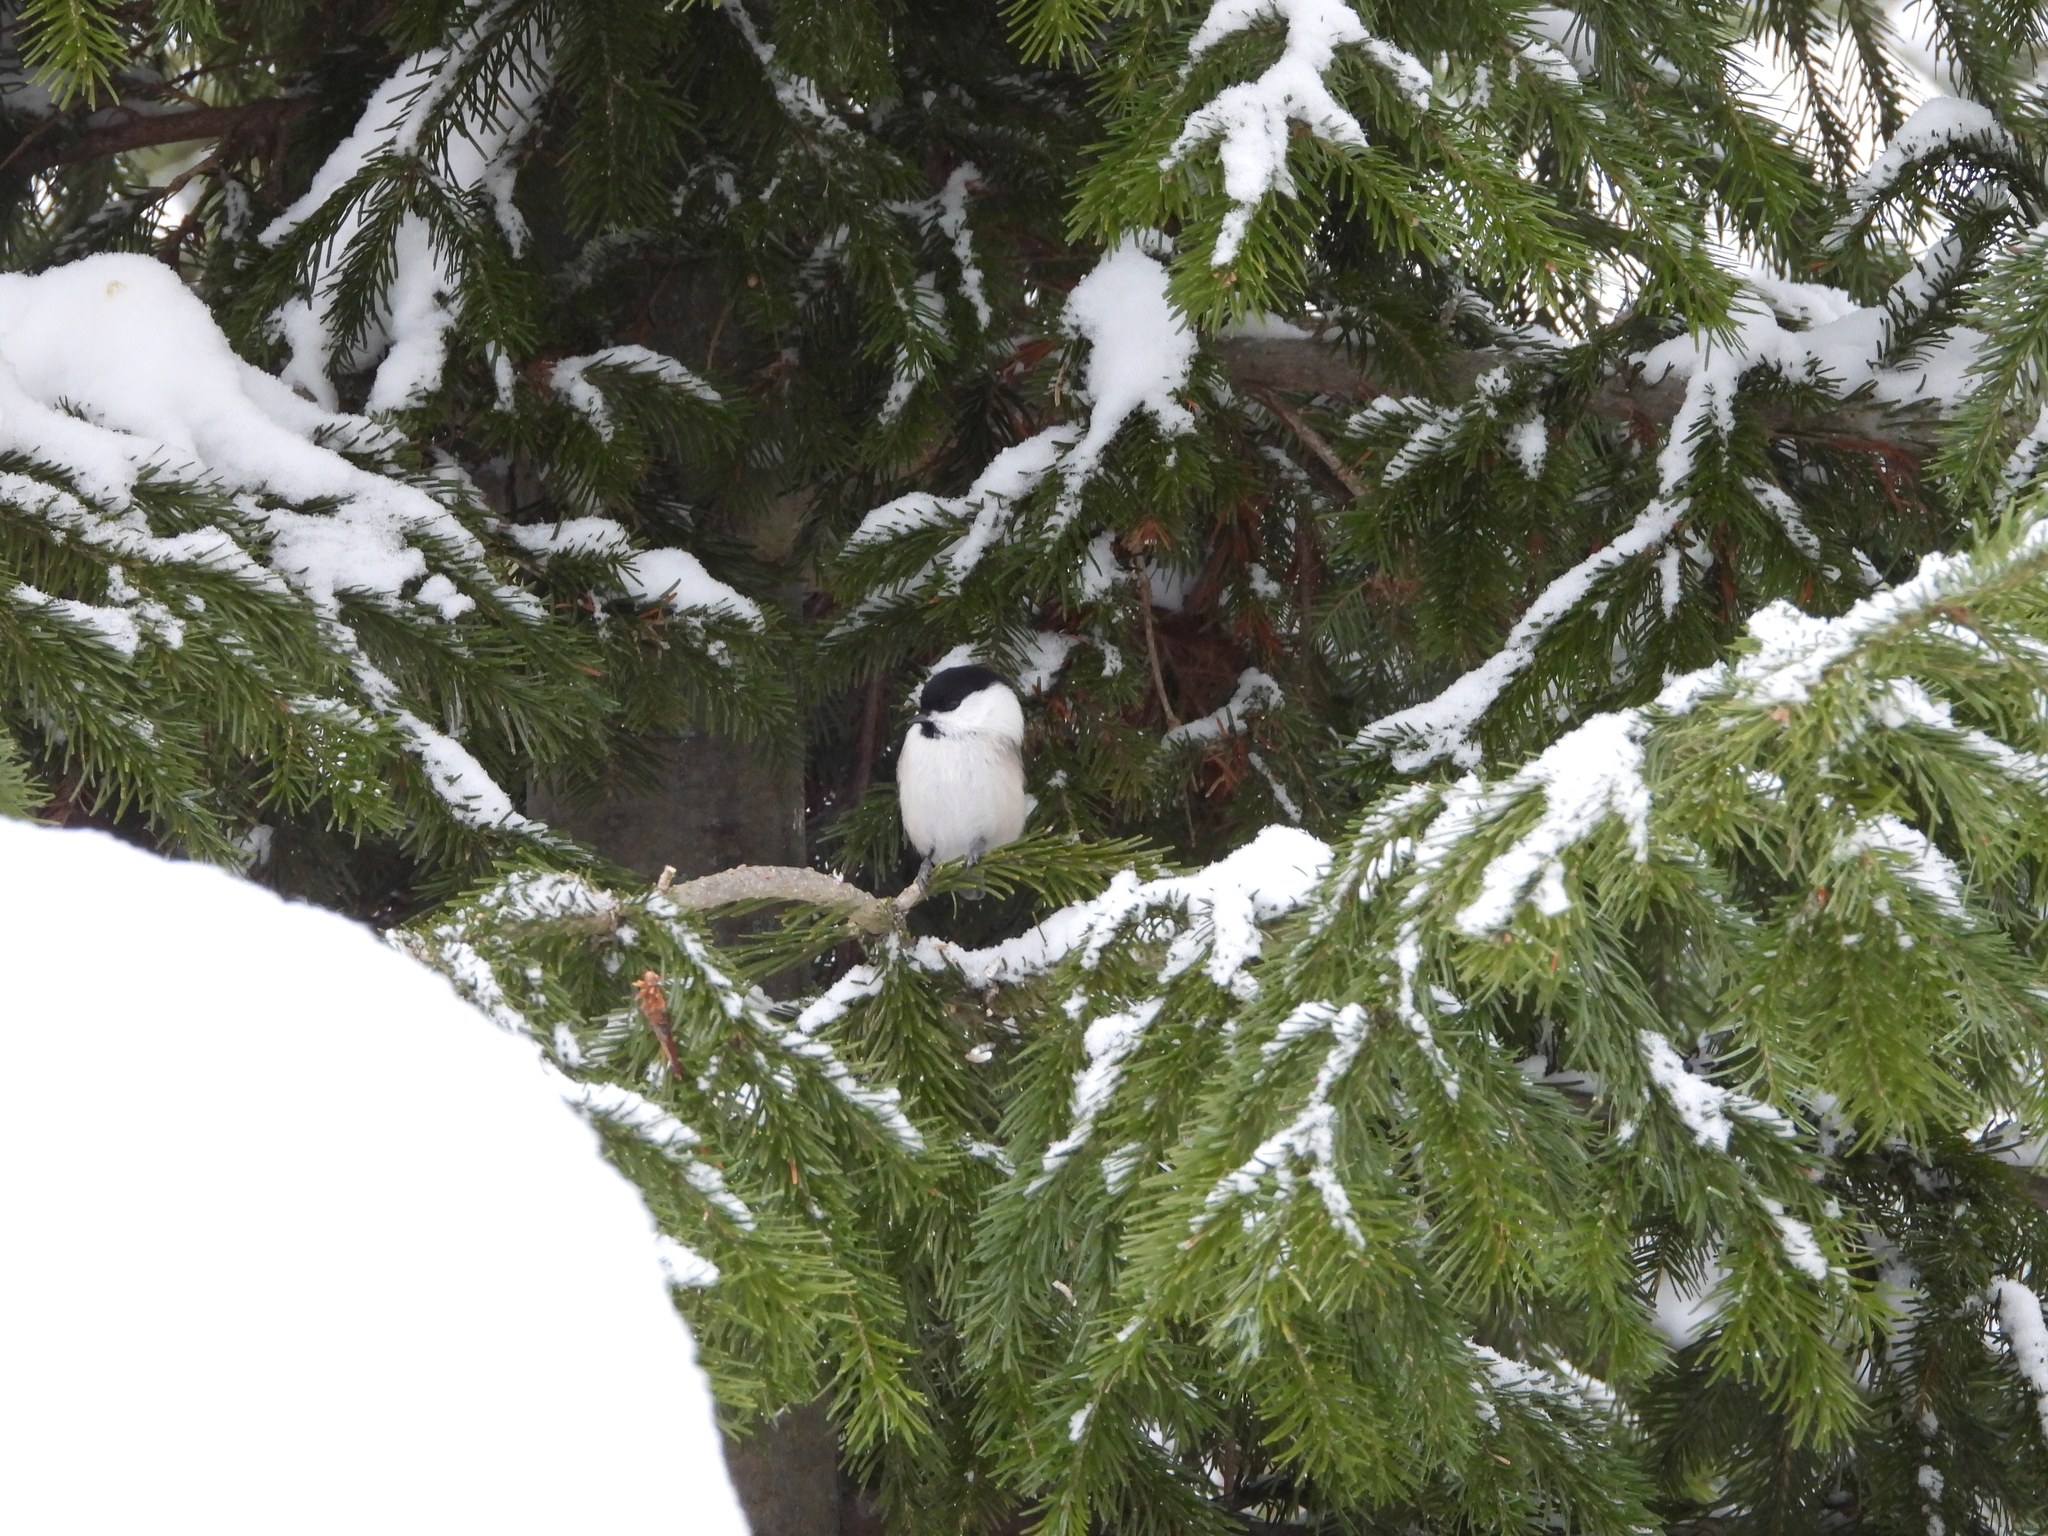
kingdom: Animalia
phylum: Chordata
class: Aves
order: Passeriformes
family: Paridae
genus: Poecile
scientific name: Poecile montanus
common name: Willow tit
